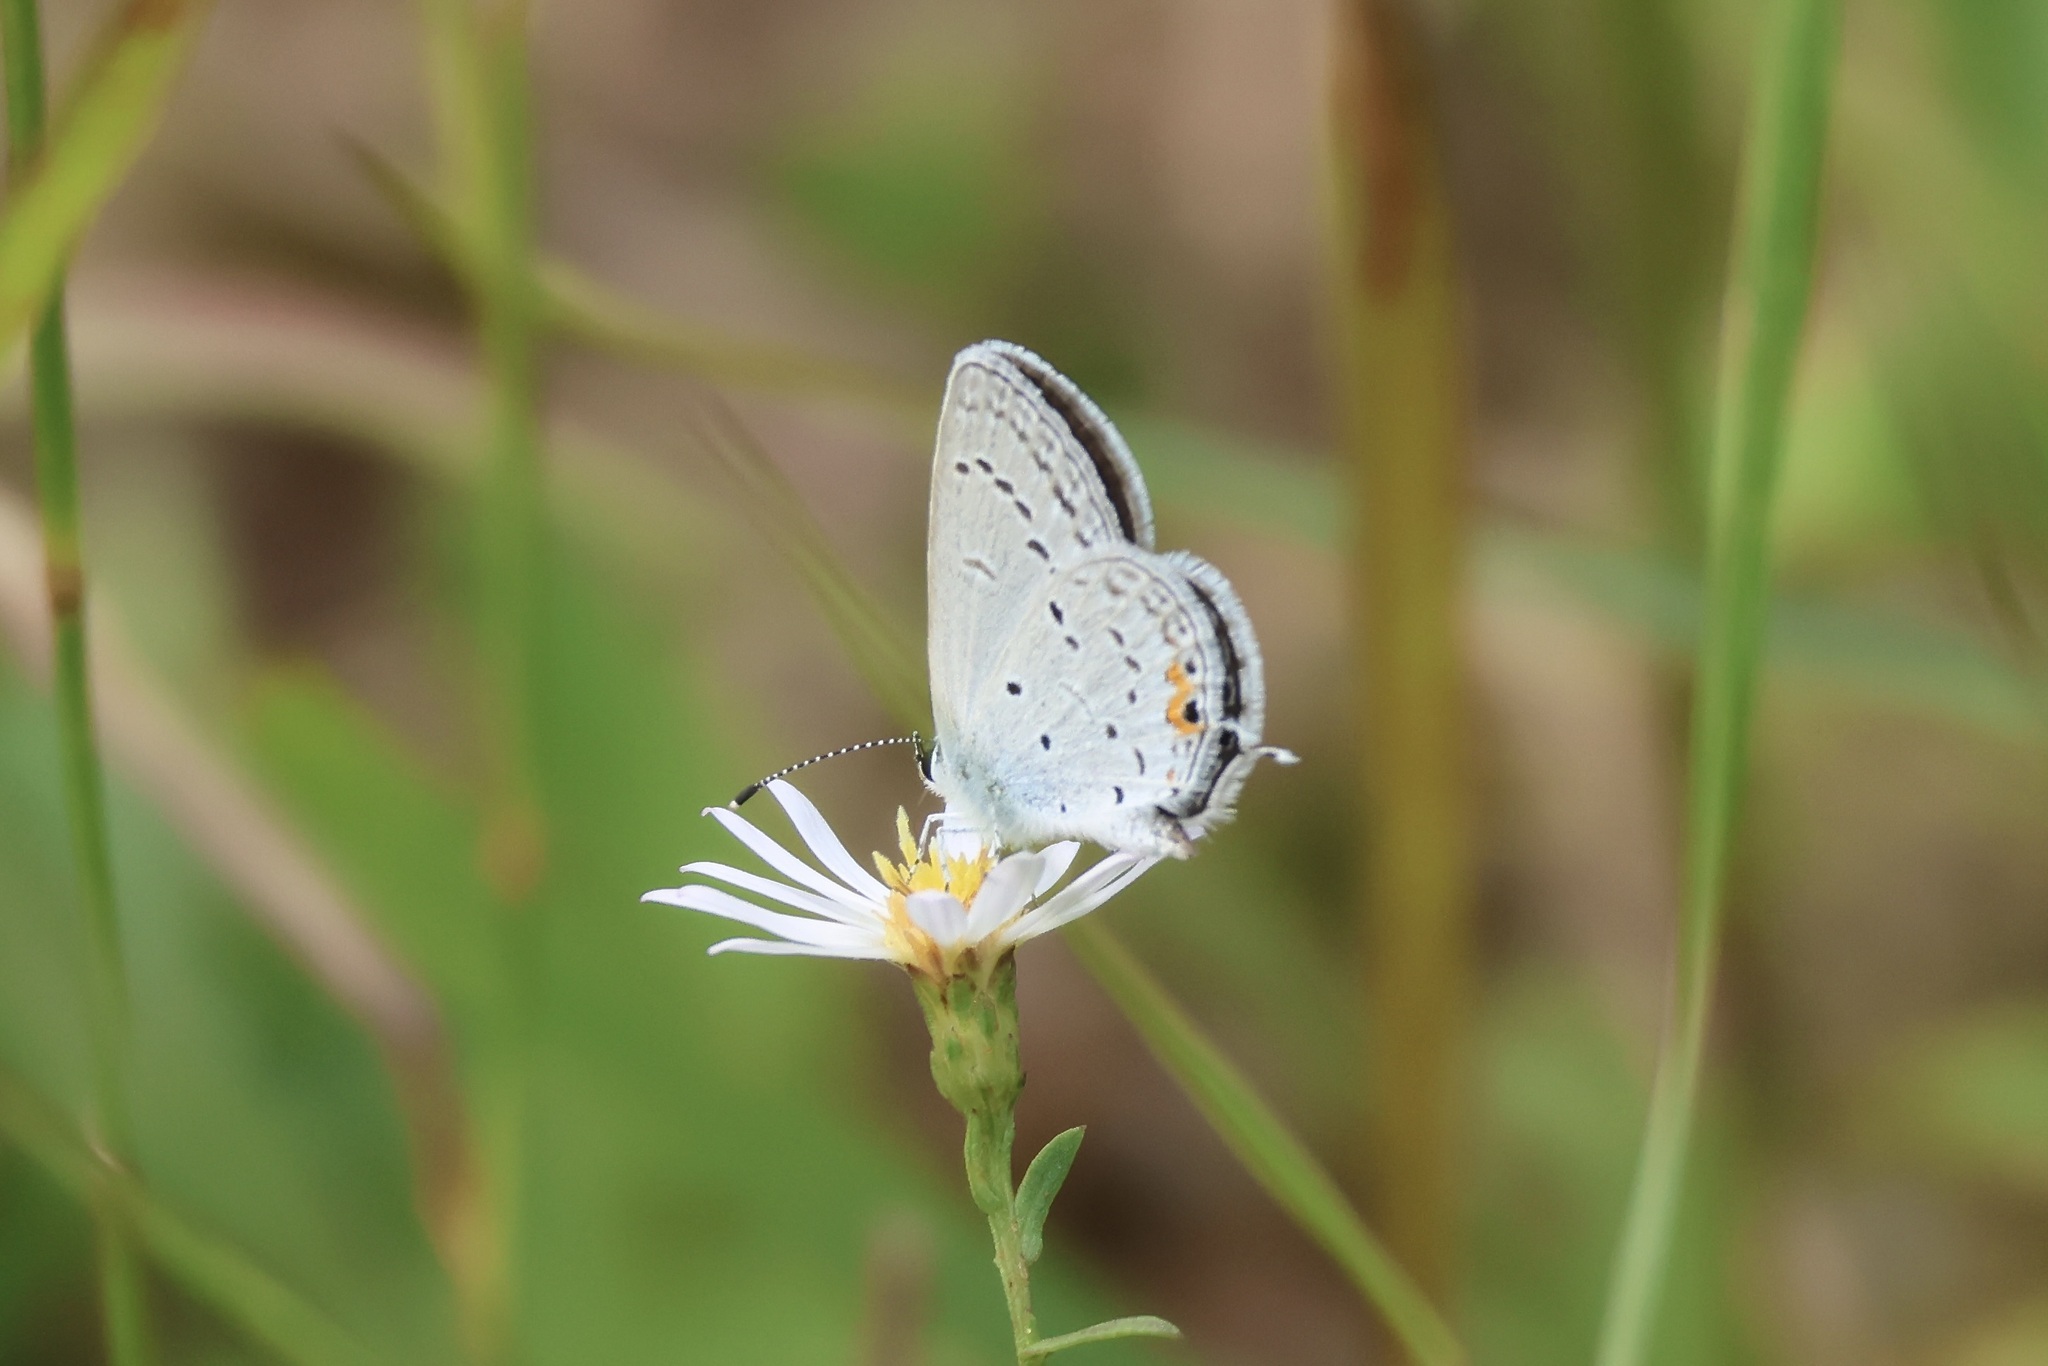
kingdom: Animalia
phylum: Arthropoda
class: Insecta
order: Lepidoptera
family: Lycaenidae
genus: Elkalyce
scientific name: Elkalyce comyntas
